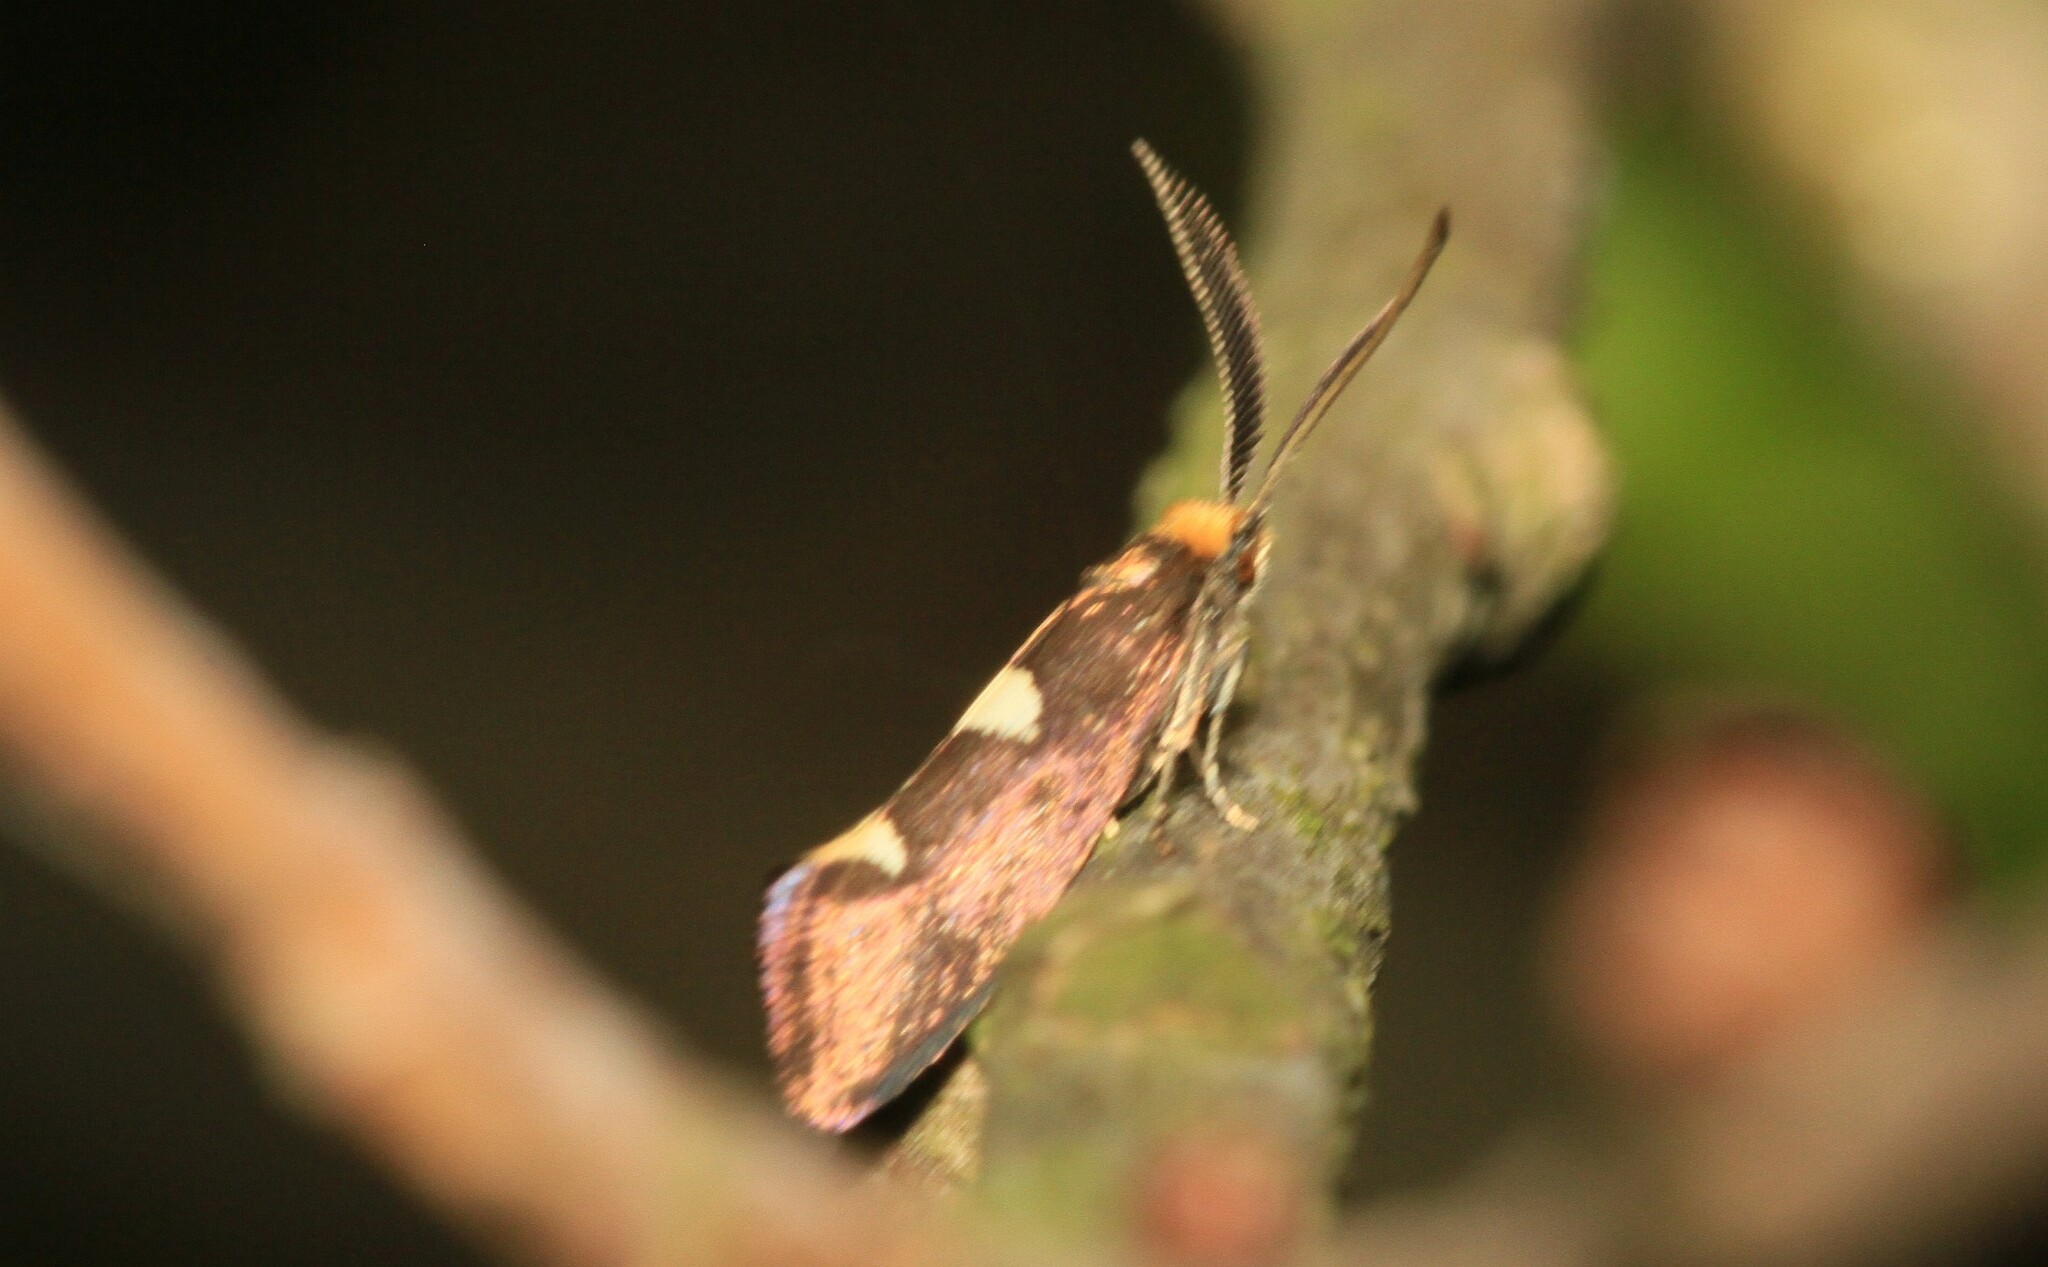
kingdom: Animalia
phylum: Arthropoda
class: Insecta
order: Lepidoptera
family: Incurvariidae
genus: Incurvaria
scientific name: Incurvaria masculella
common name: Feathered leaf-cutter
